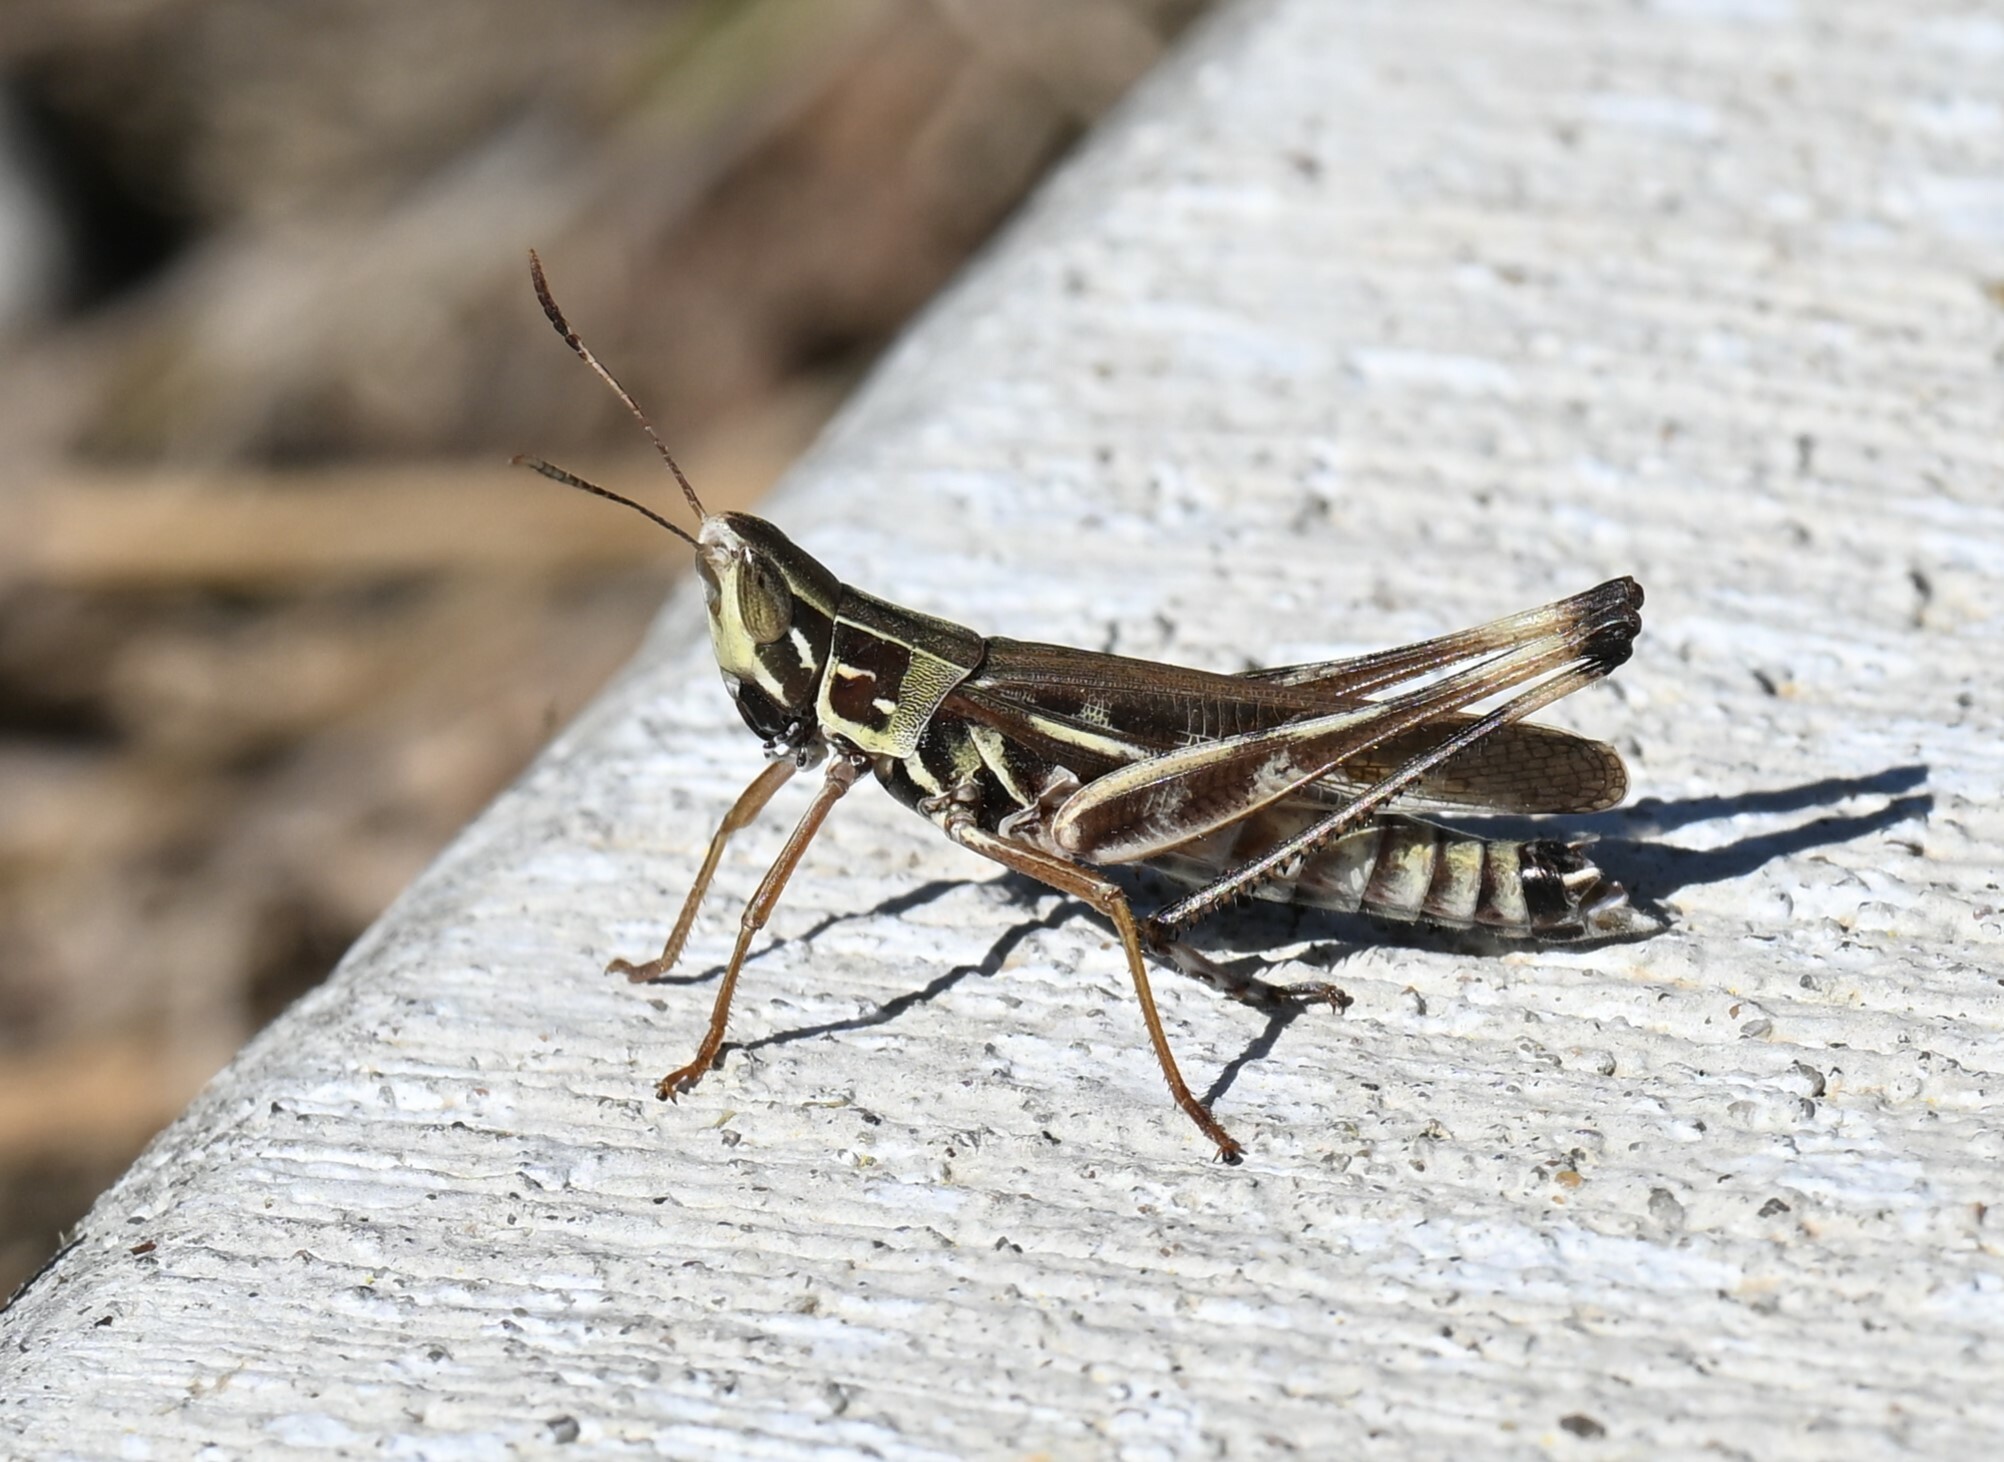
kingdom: Animalia
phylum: Arthropoda
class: Insecta
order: Orthoptera
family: Acrididae
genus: Syrbula
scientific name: Syrbula admirabilis
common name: Handsome grasshopper
